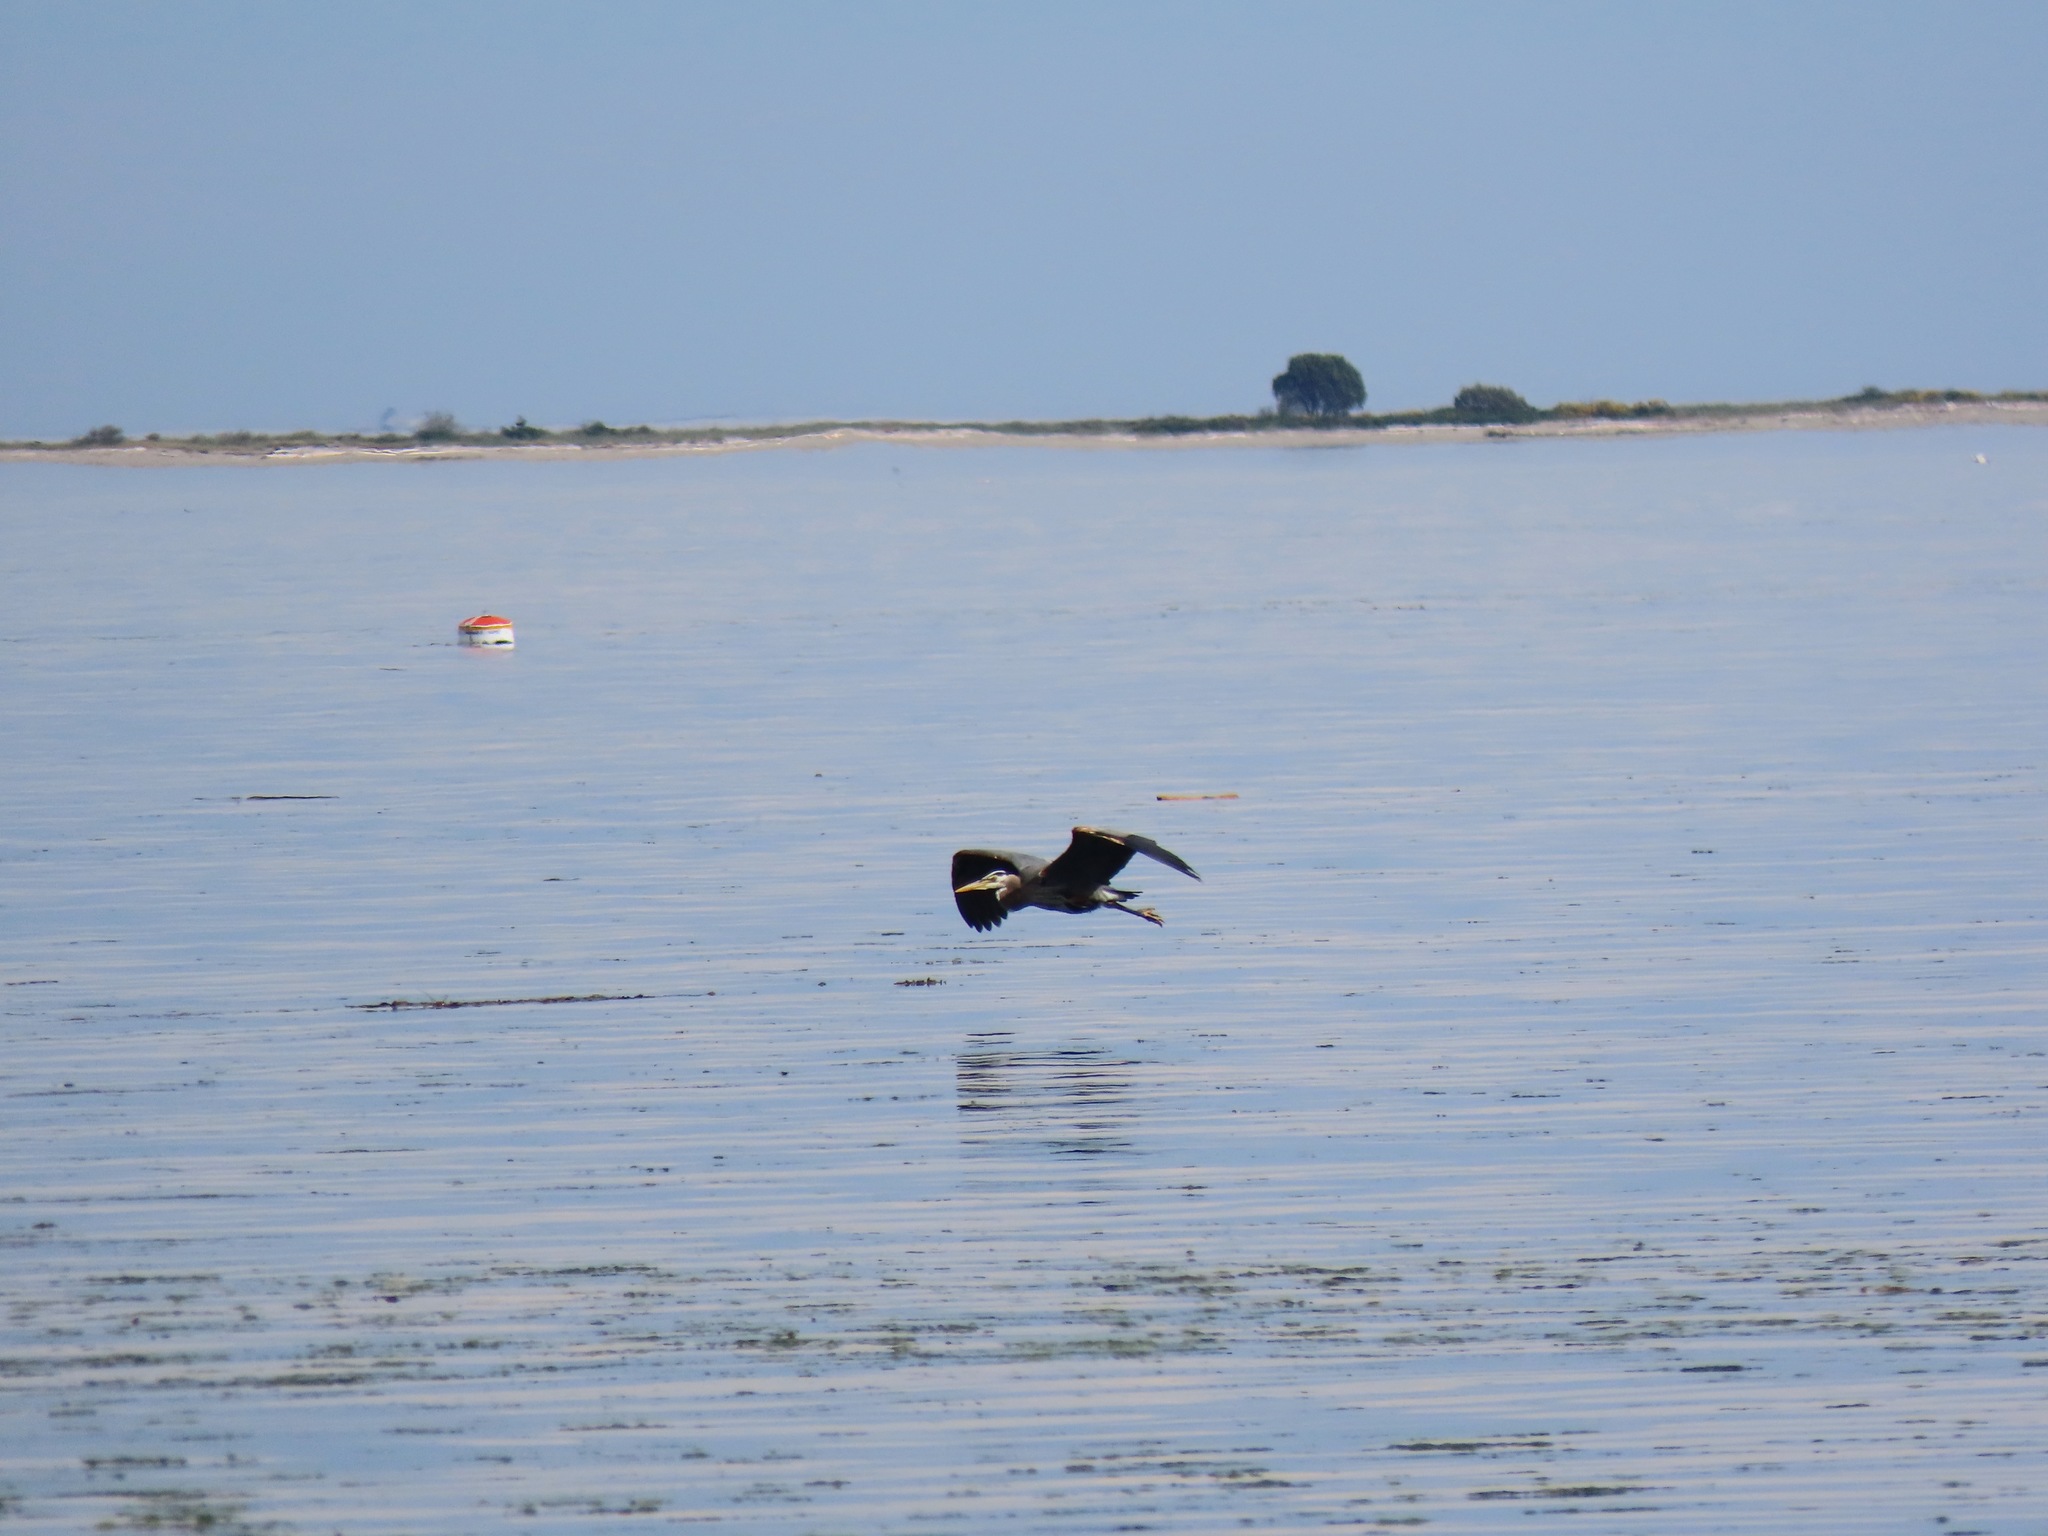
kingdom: Animalia
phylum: Chordata
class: Aves
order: Pelecaniformes
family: Ardeidae
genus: Ardea
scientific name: Ardea herodias
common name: Great blue heron
